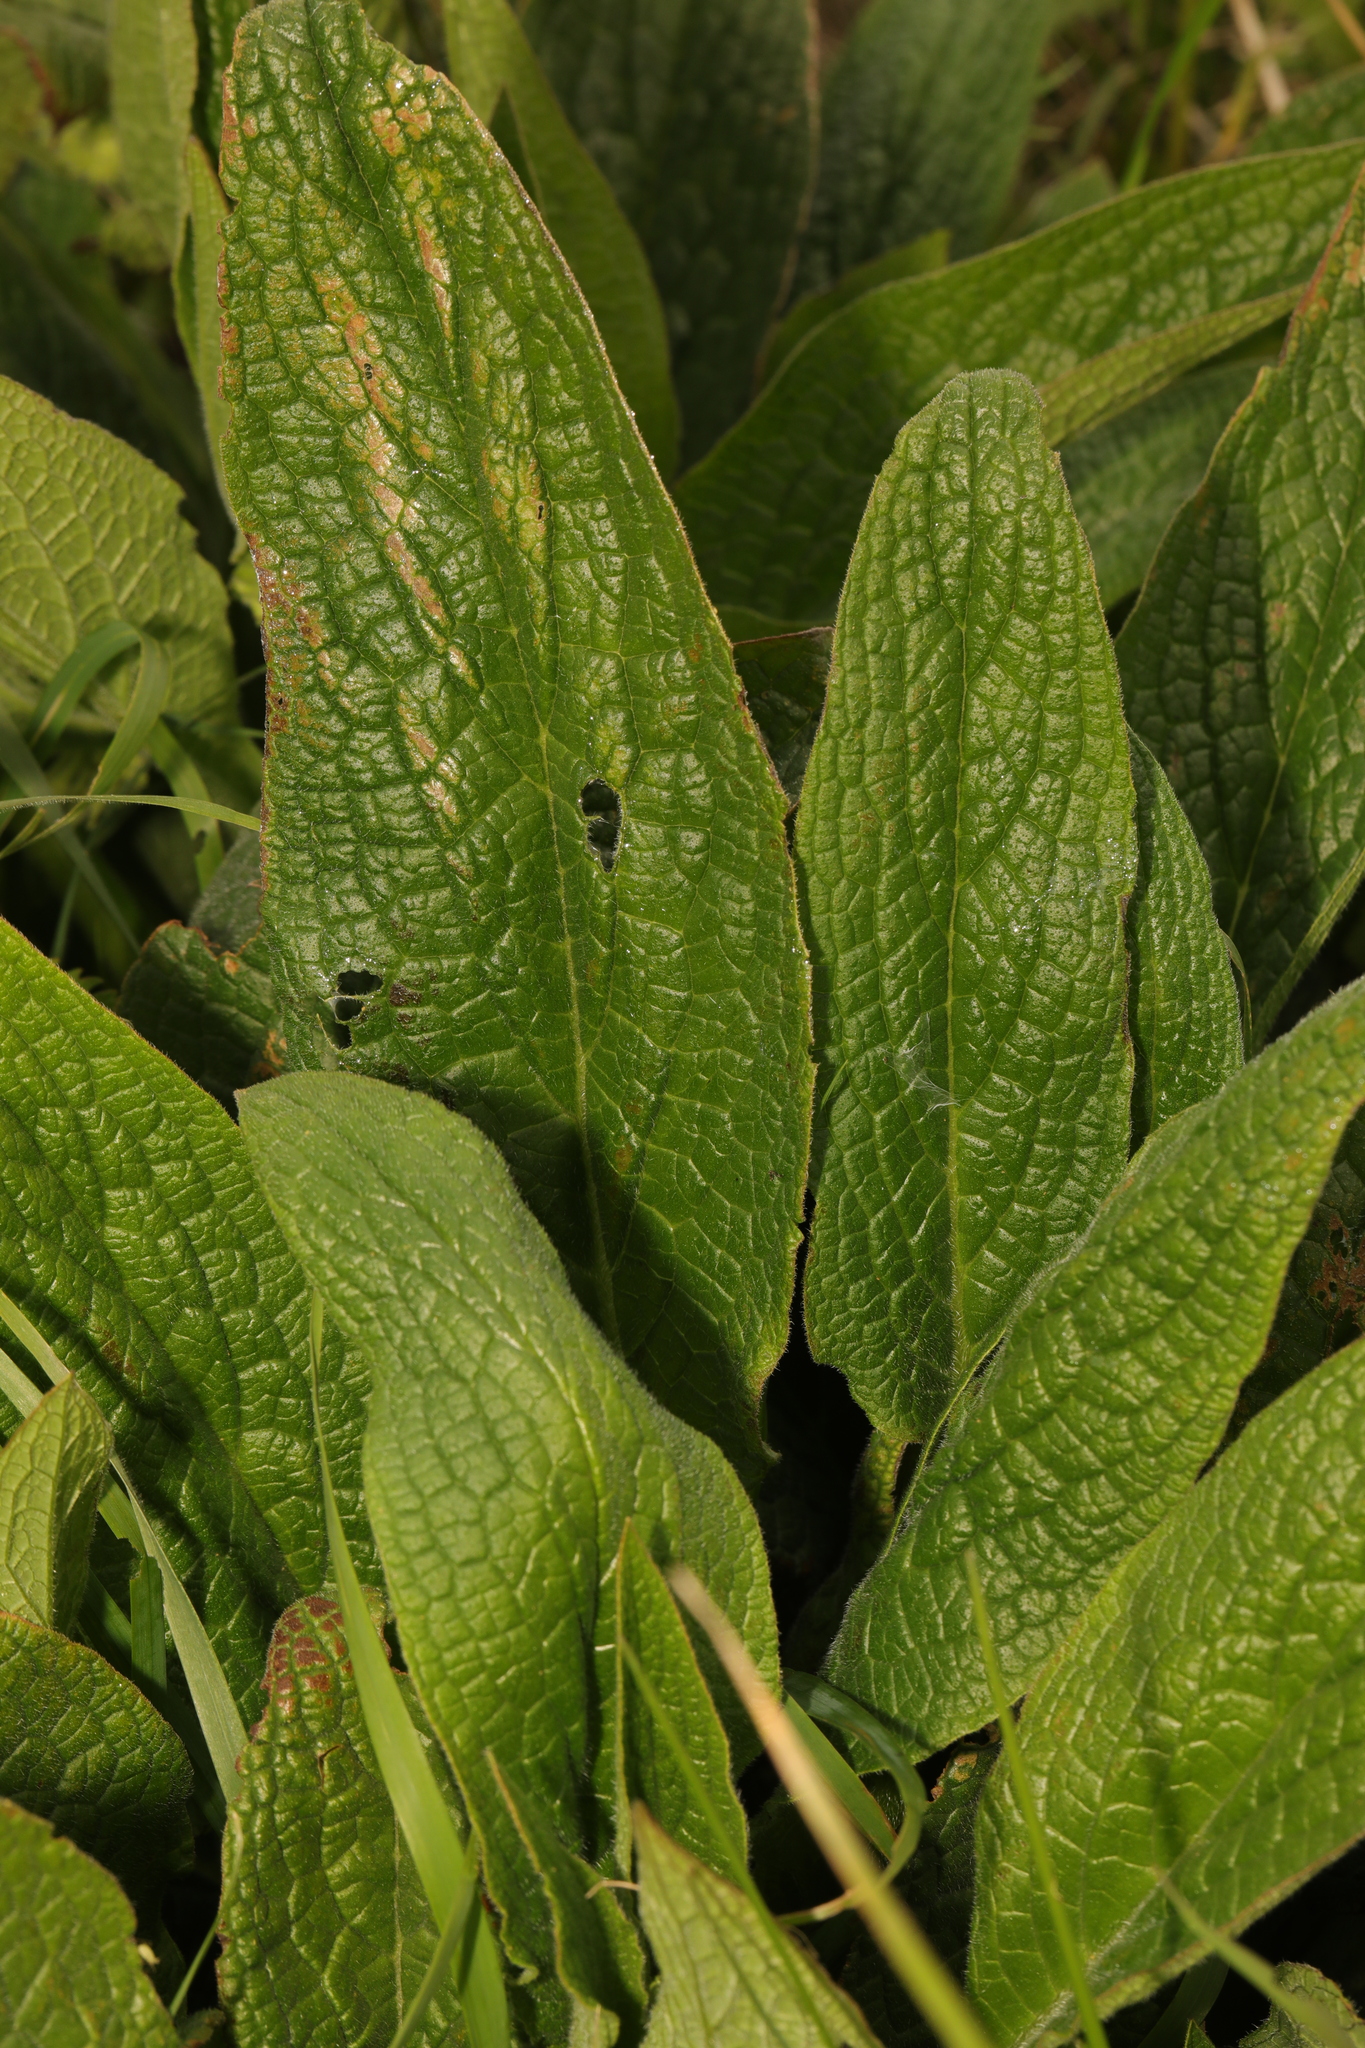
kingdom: Plantae
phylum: Tracheophyta
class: Magnoliopsida
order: Boraginales
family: Boraginaceae
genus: Symphytum
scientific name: Symphytum officinale
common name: Common comfrey
